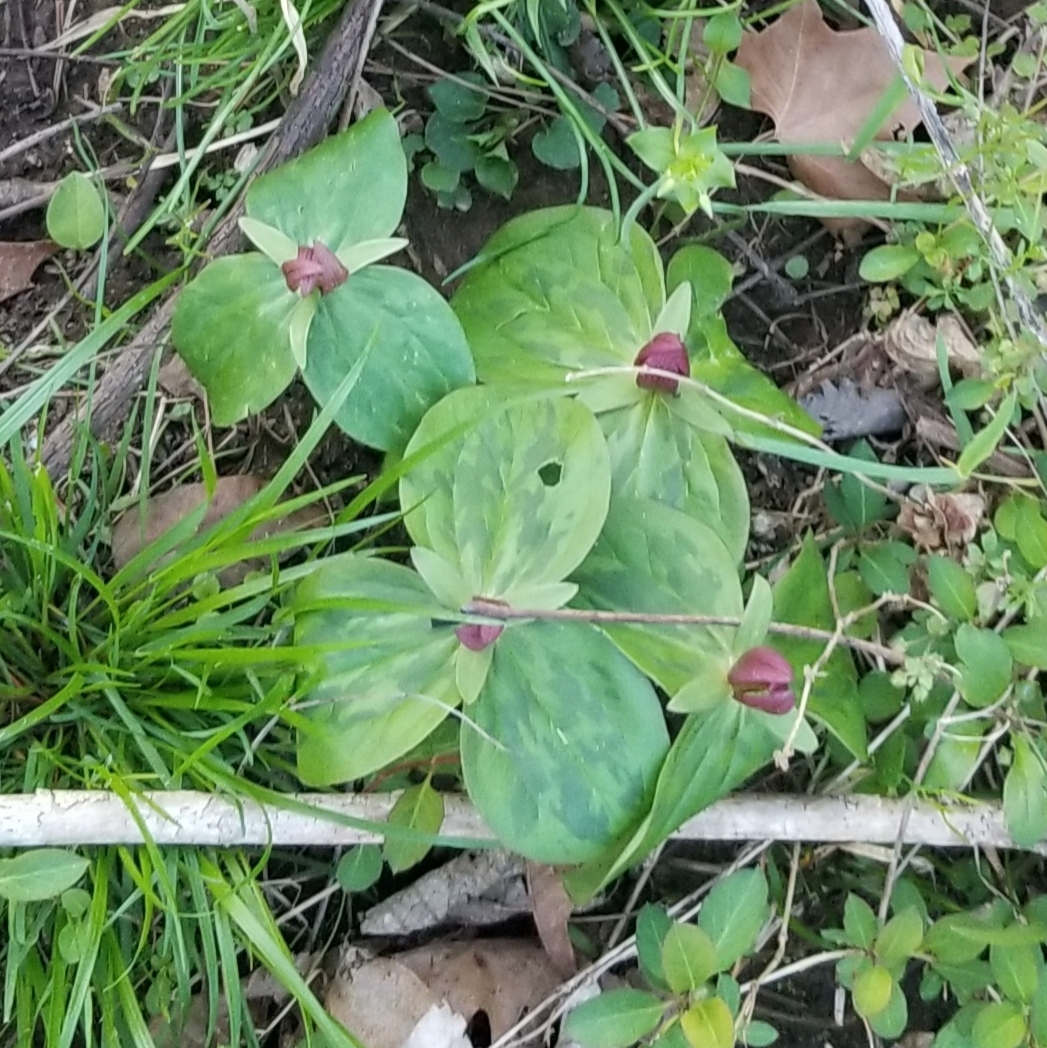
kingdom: Plantae
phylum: Tracheophyta
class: Liliopsida
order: Liliales
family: Melanthiaceae
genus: Trillium
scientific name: Trillium sessile
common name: Sessile trillium
